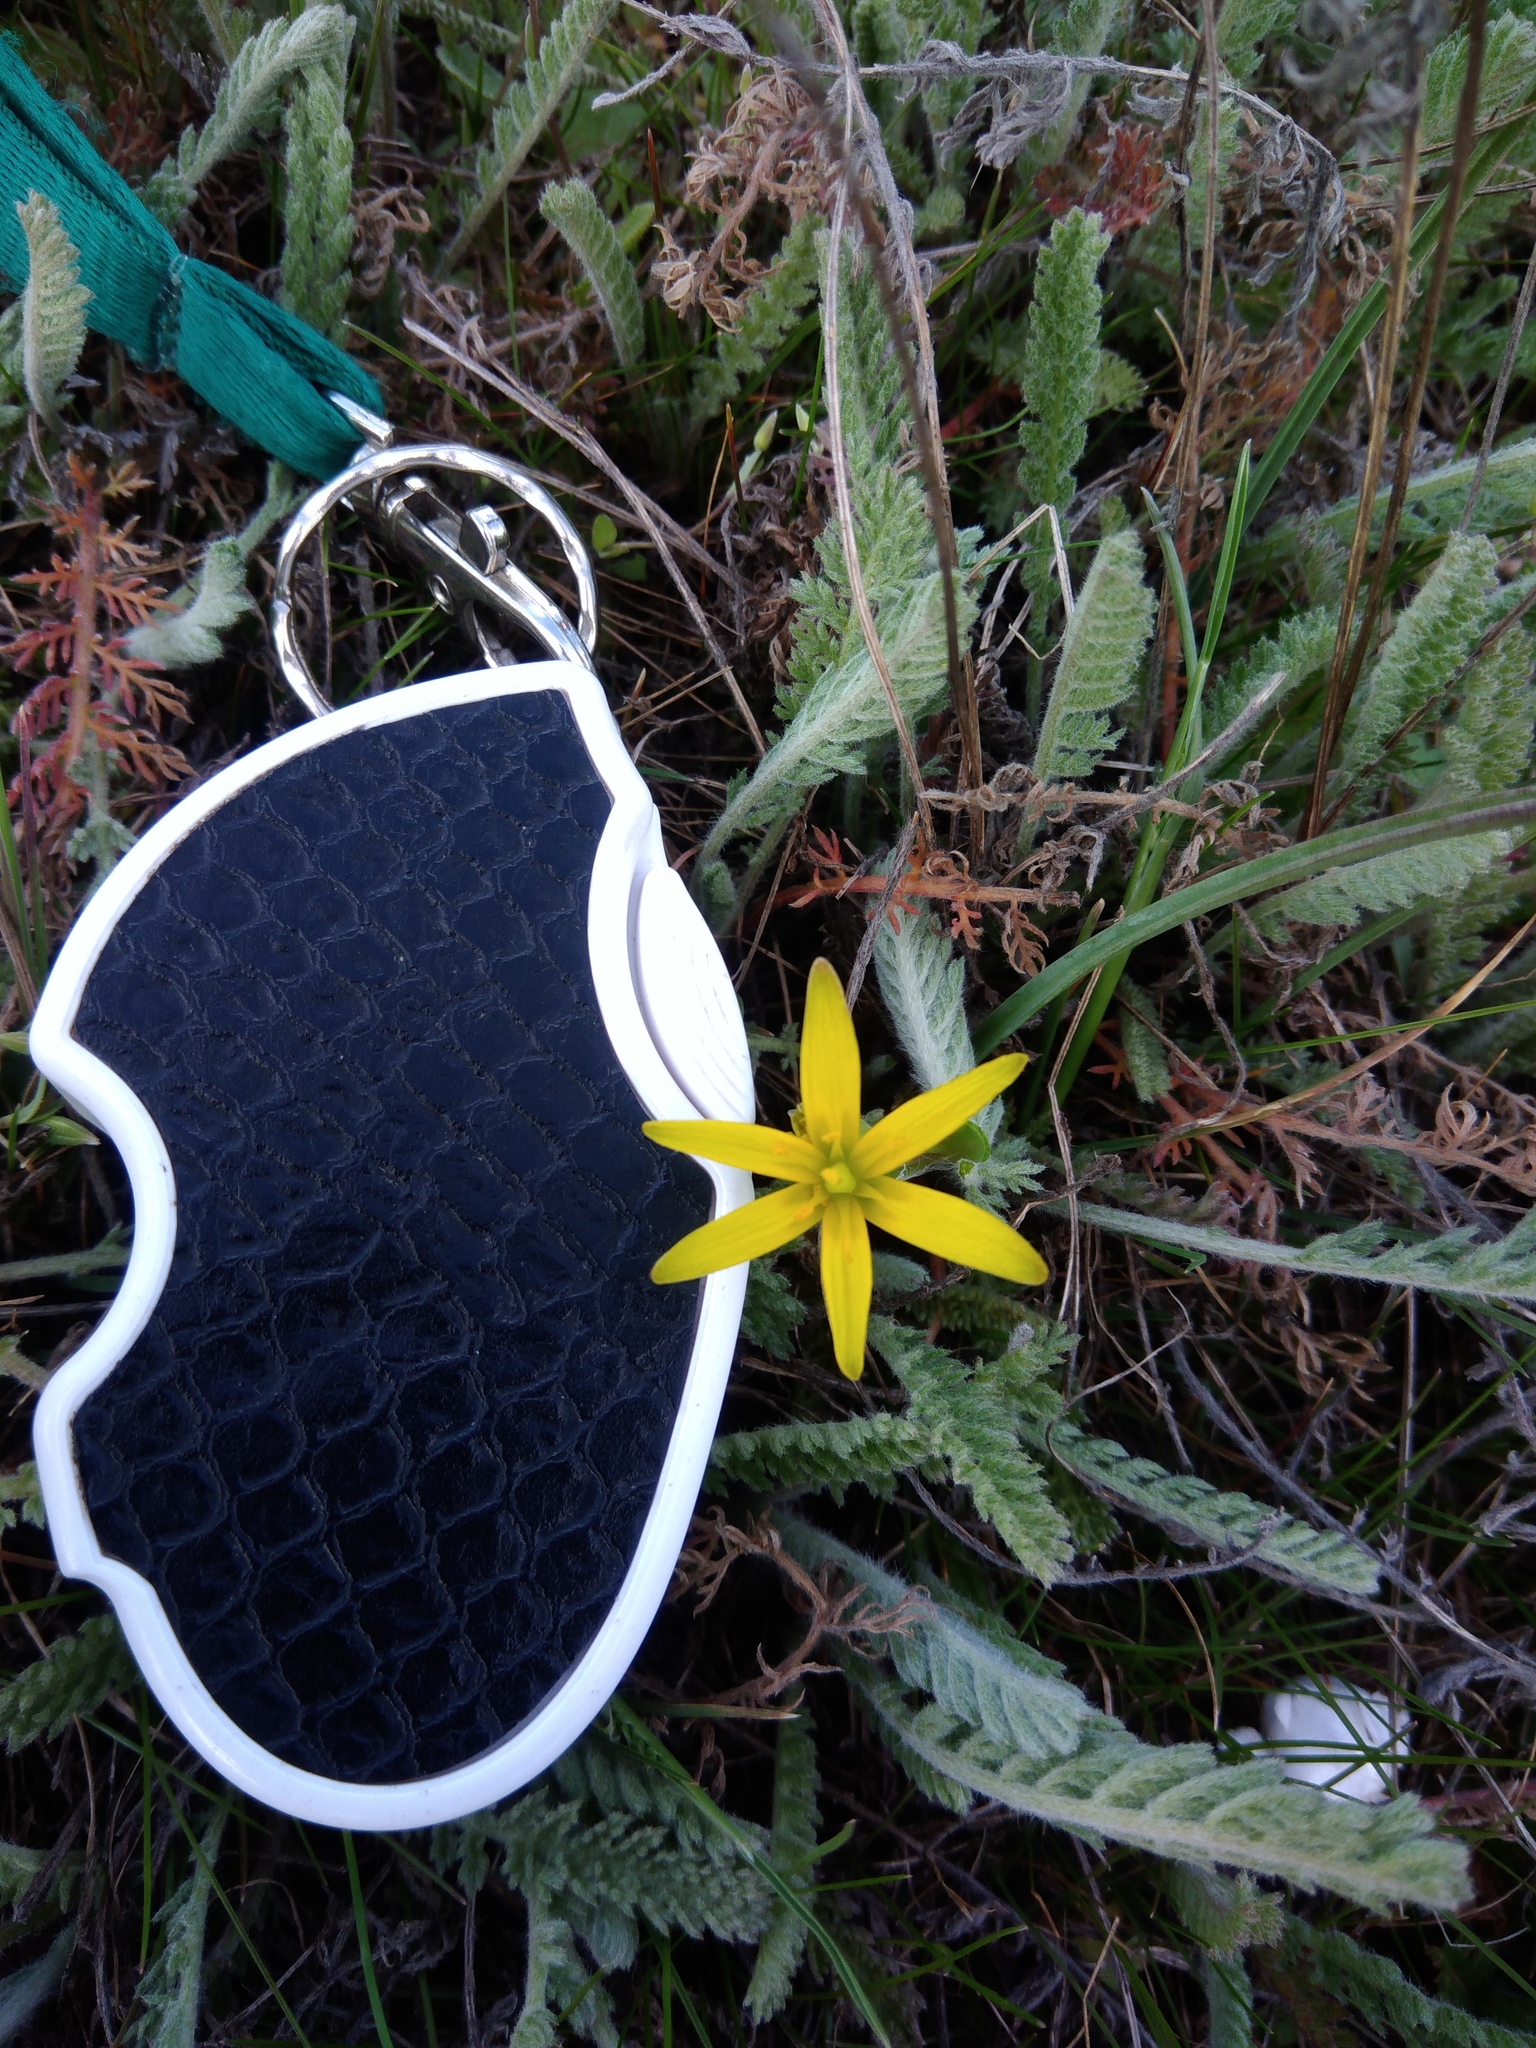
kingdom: Plantae
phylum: Tracheophyta
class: Liliopsida
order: Liliales
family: Liliaceae
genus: Gagea
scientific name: Gagea transversalis
